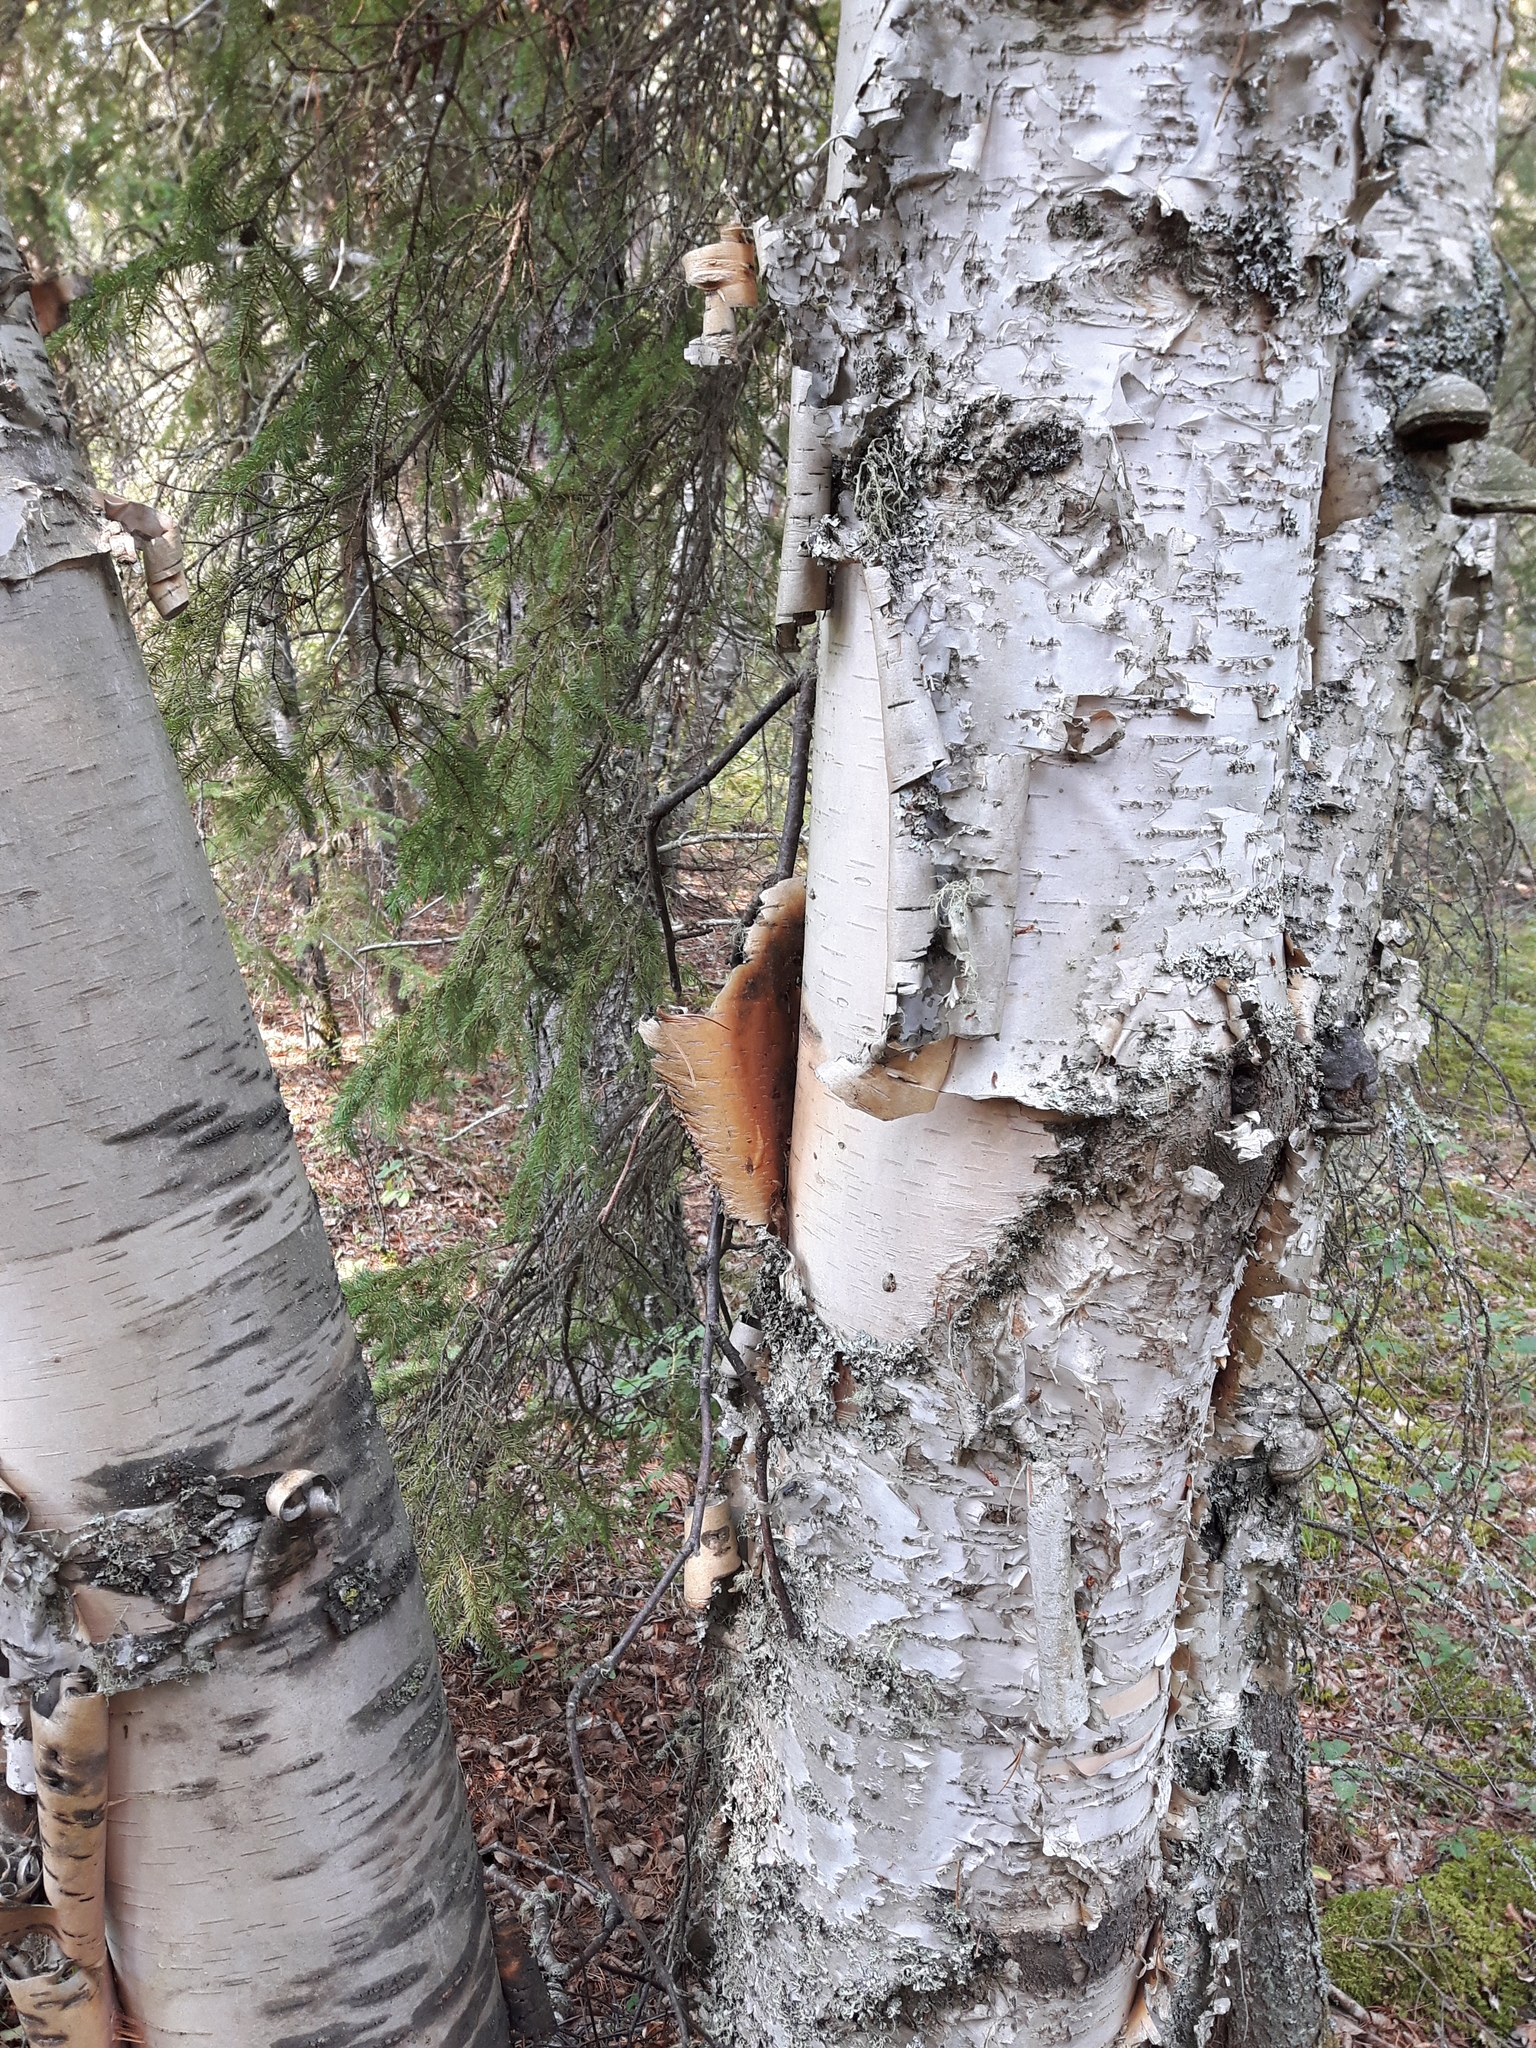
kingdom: Plantae
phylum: Tracheophyta
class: Magnoliopsida
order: Fagales
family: Betulaceae
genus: Betula
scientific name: Betula papyrifera
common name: Paper birch
